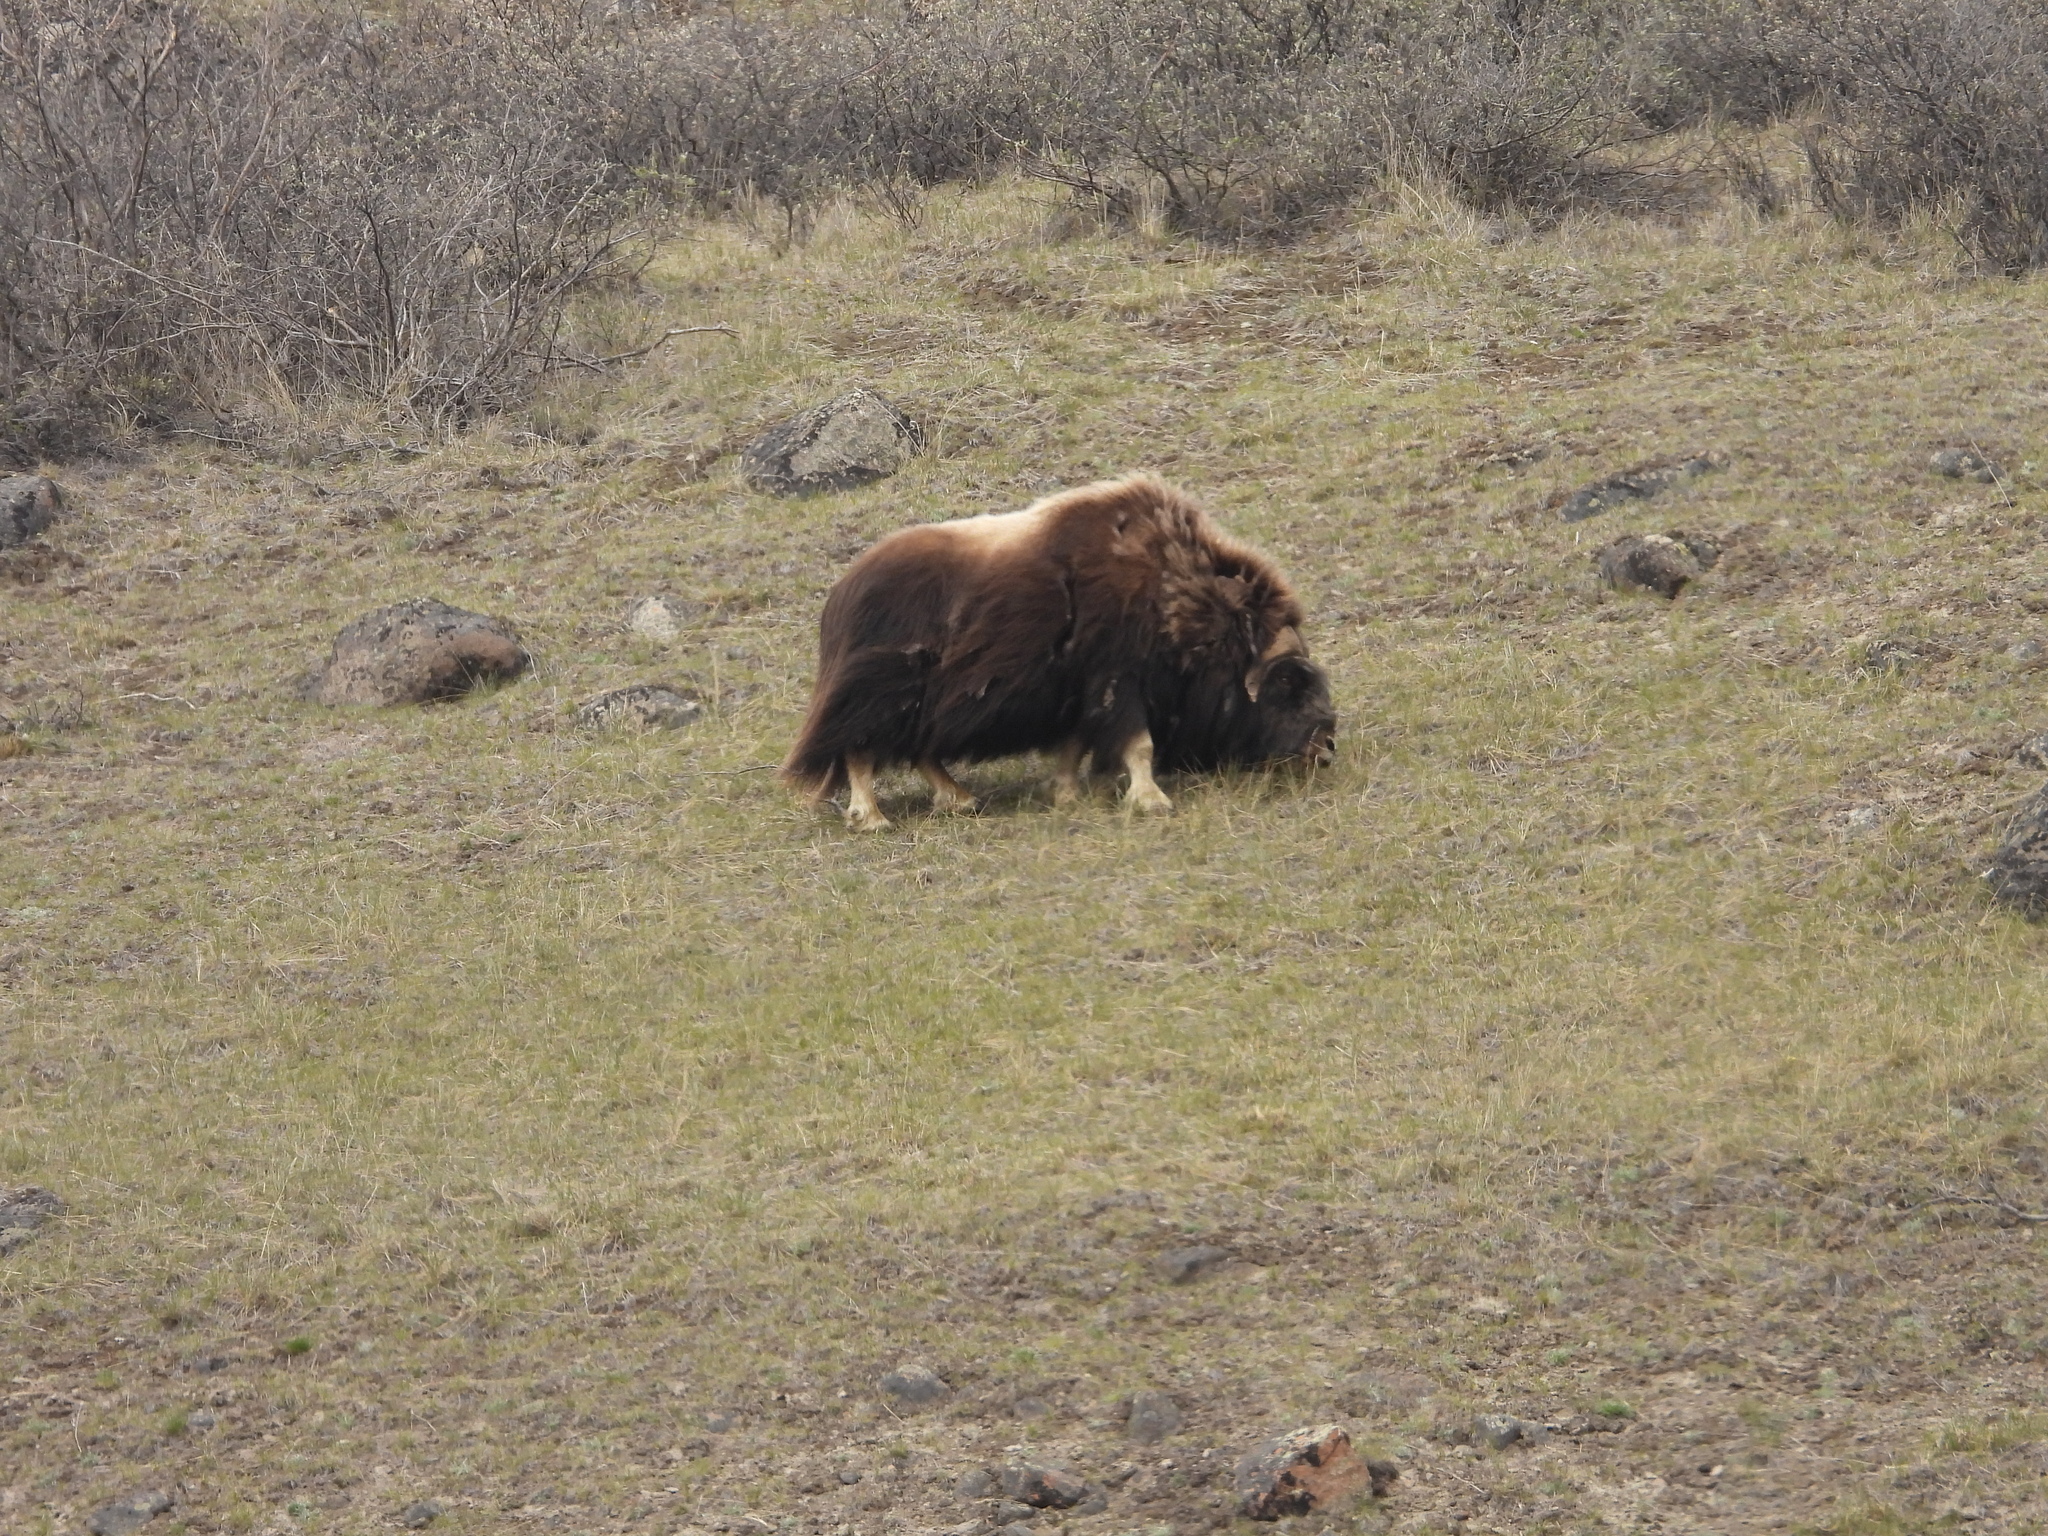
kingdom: Animalia
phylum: Chordata
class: Mammalia
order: Artiodactyla
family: Bovidae
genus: Ovibos
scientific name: Ovibos moschatus
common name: Muskox
